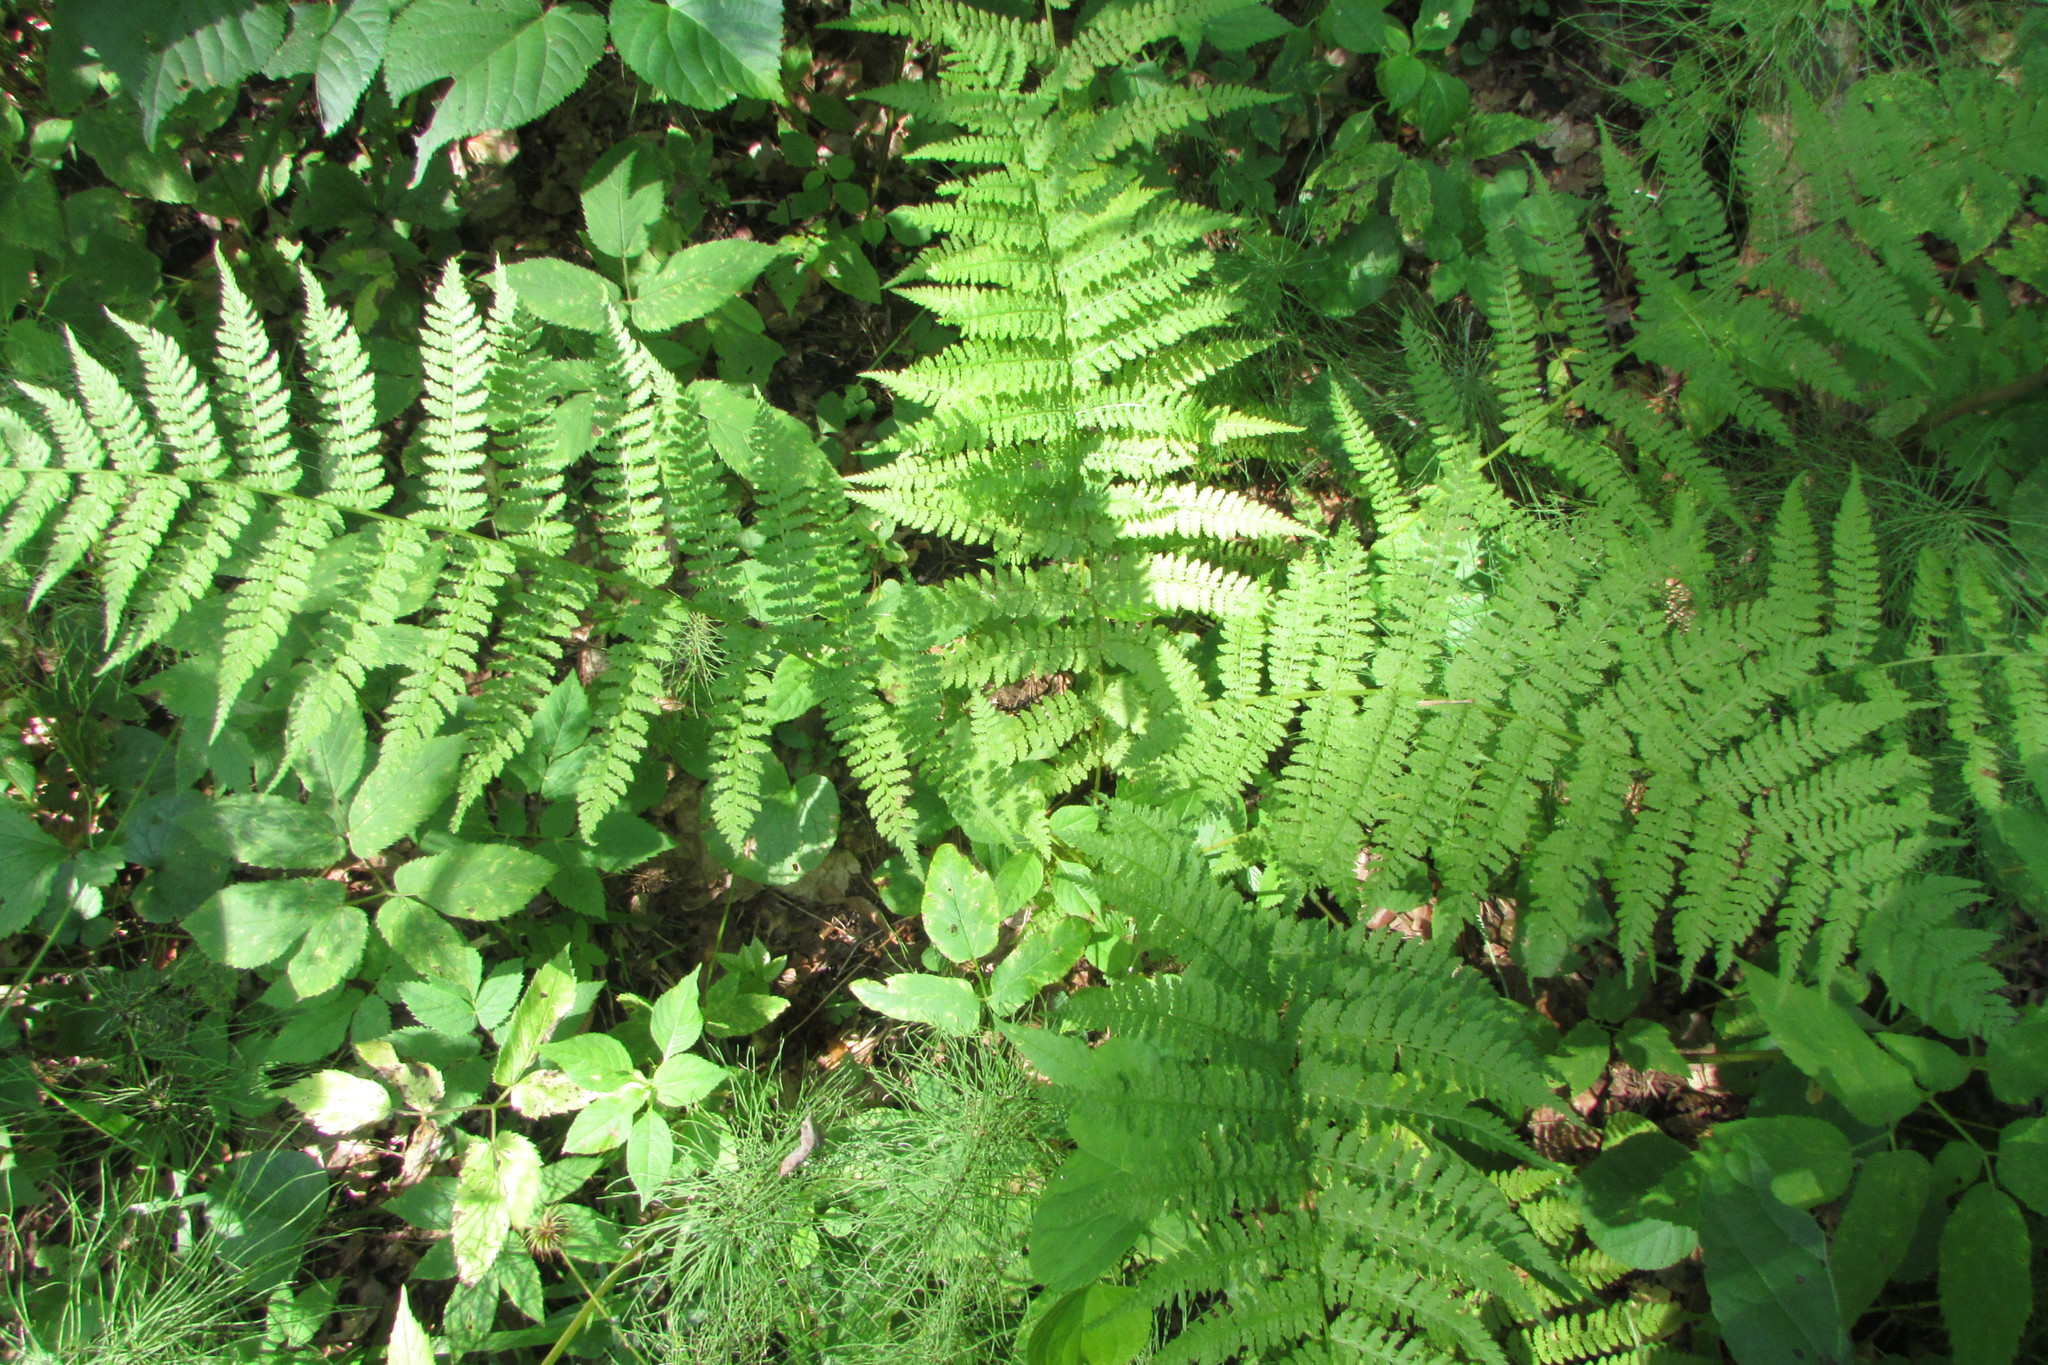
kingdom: Plantae
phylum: Tracheophyta
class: Polypodiopsida
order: Polypodiales
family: Athyriaceae
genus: Athyrium
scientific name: Athyrium filix-femina
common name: Lady fern
